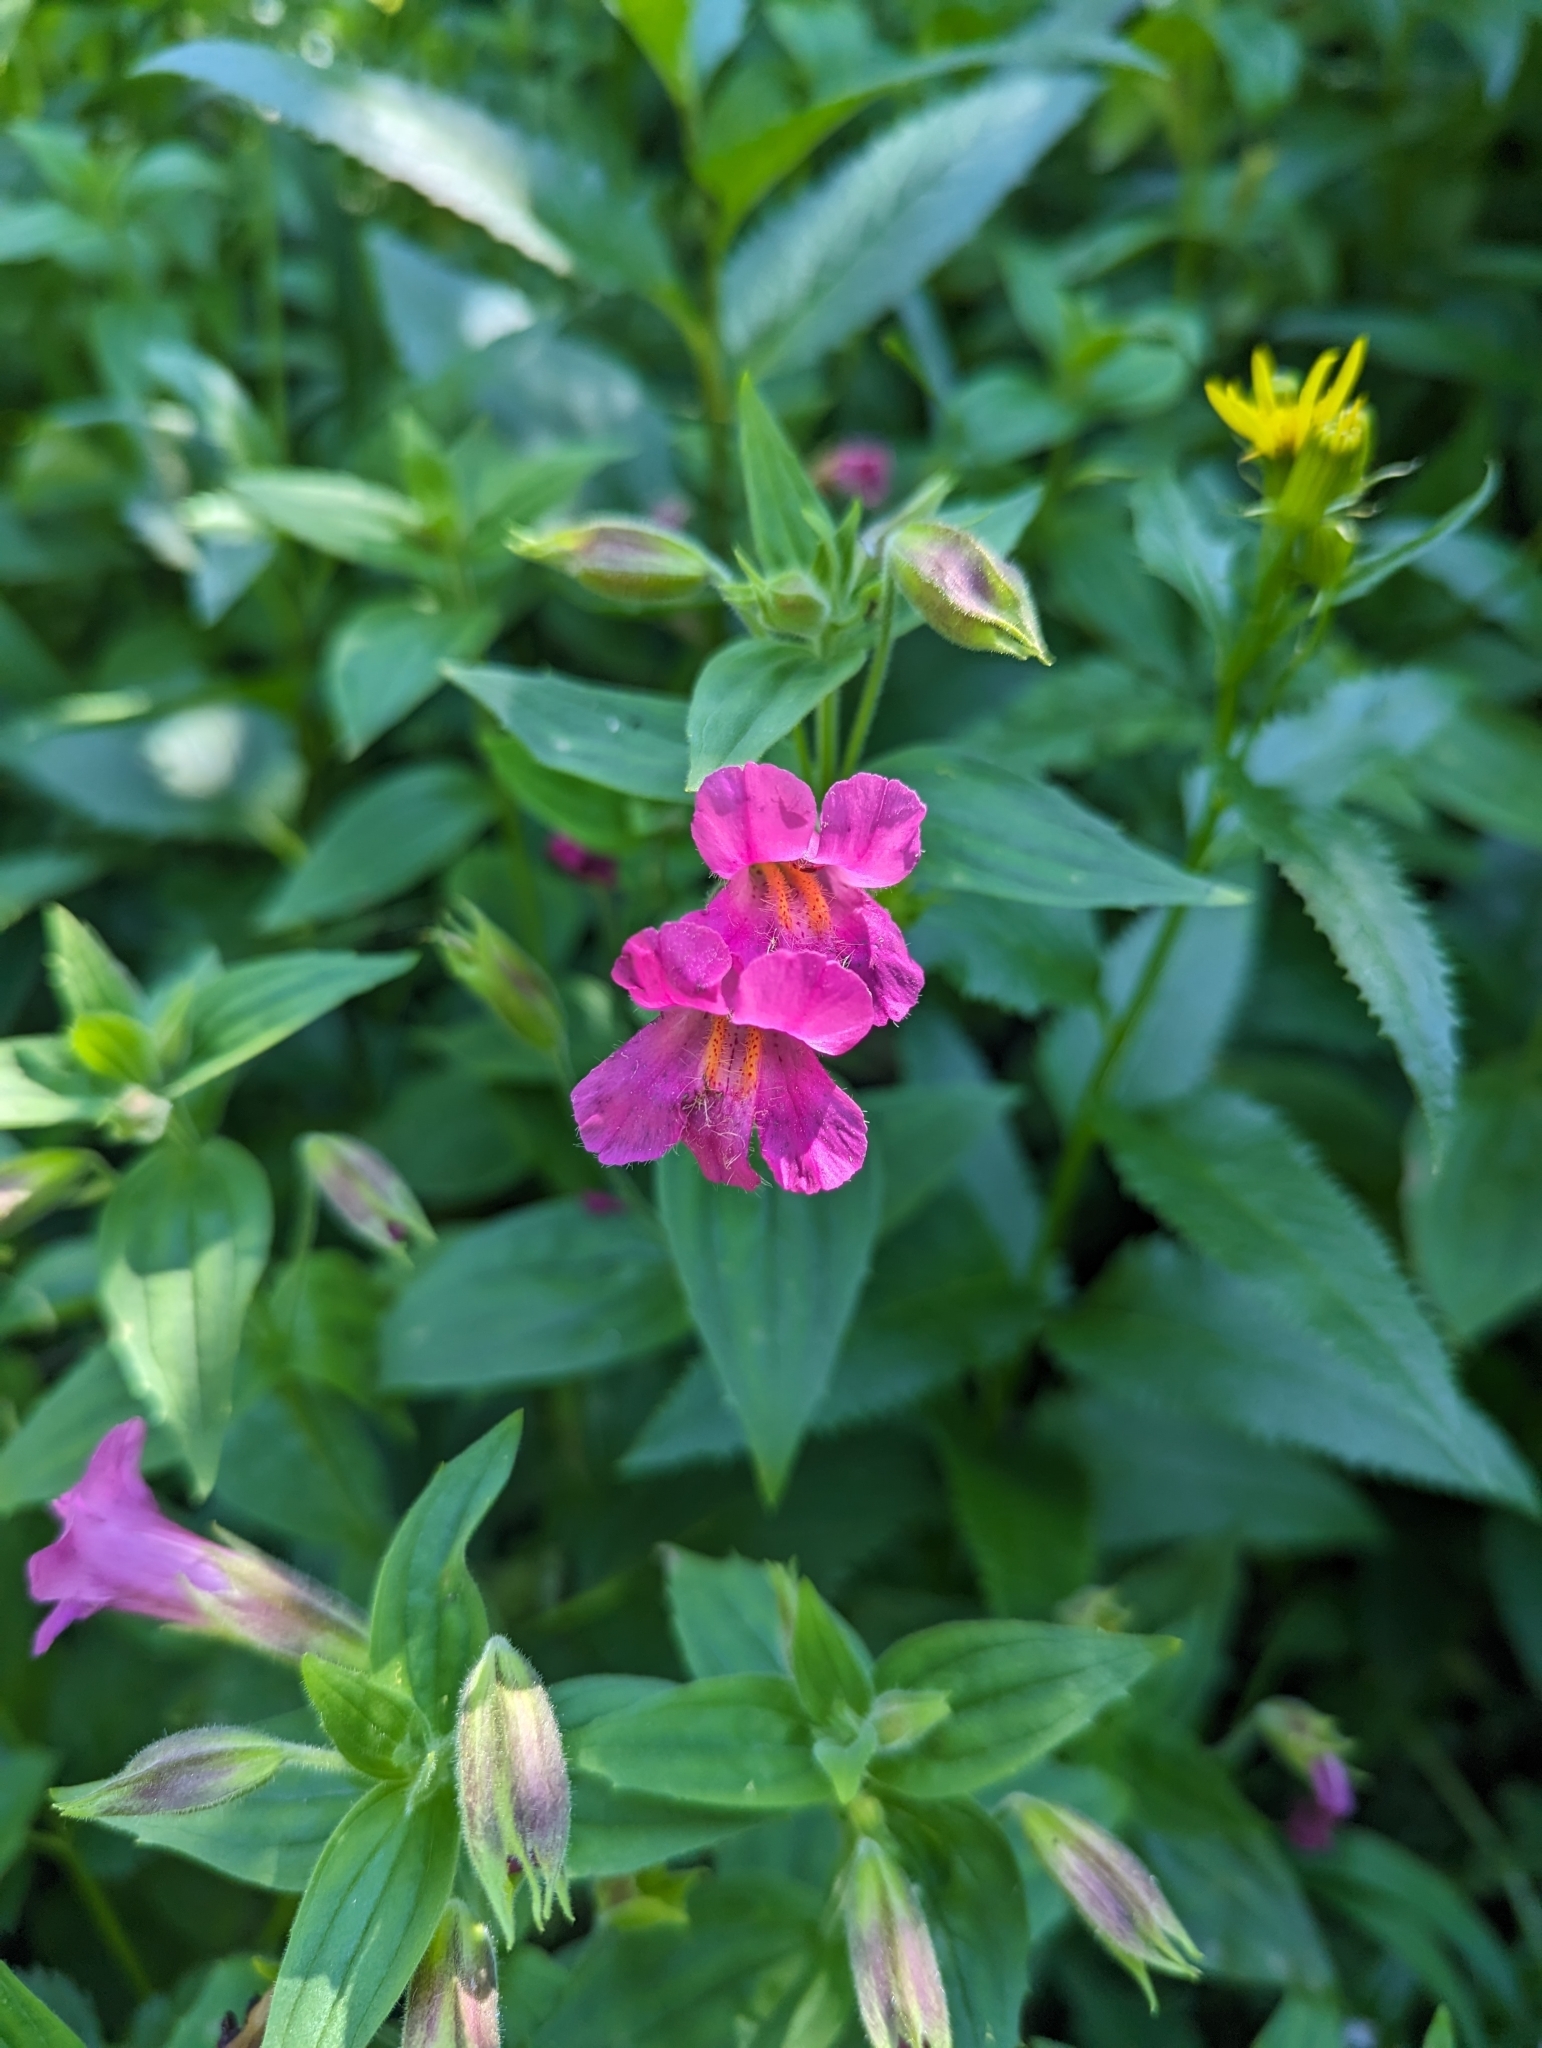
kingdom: Plantae
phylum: Tracheophyta
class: Magnoliopsida
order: Lamiales
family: Phrymaceae
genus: Erythranthe
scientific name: Erythranthe lewisii
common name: Lewis's monkey-flower
